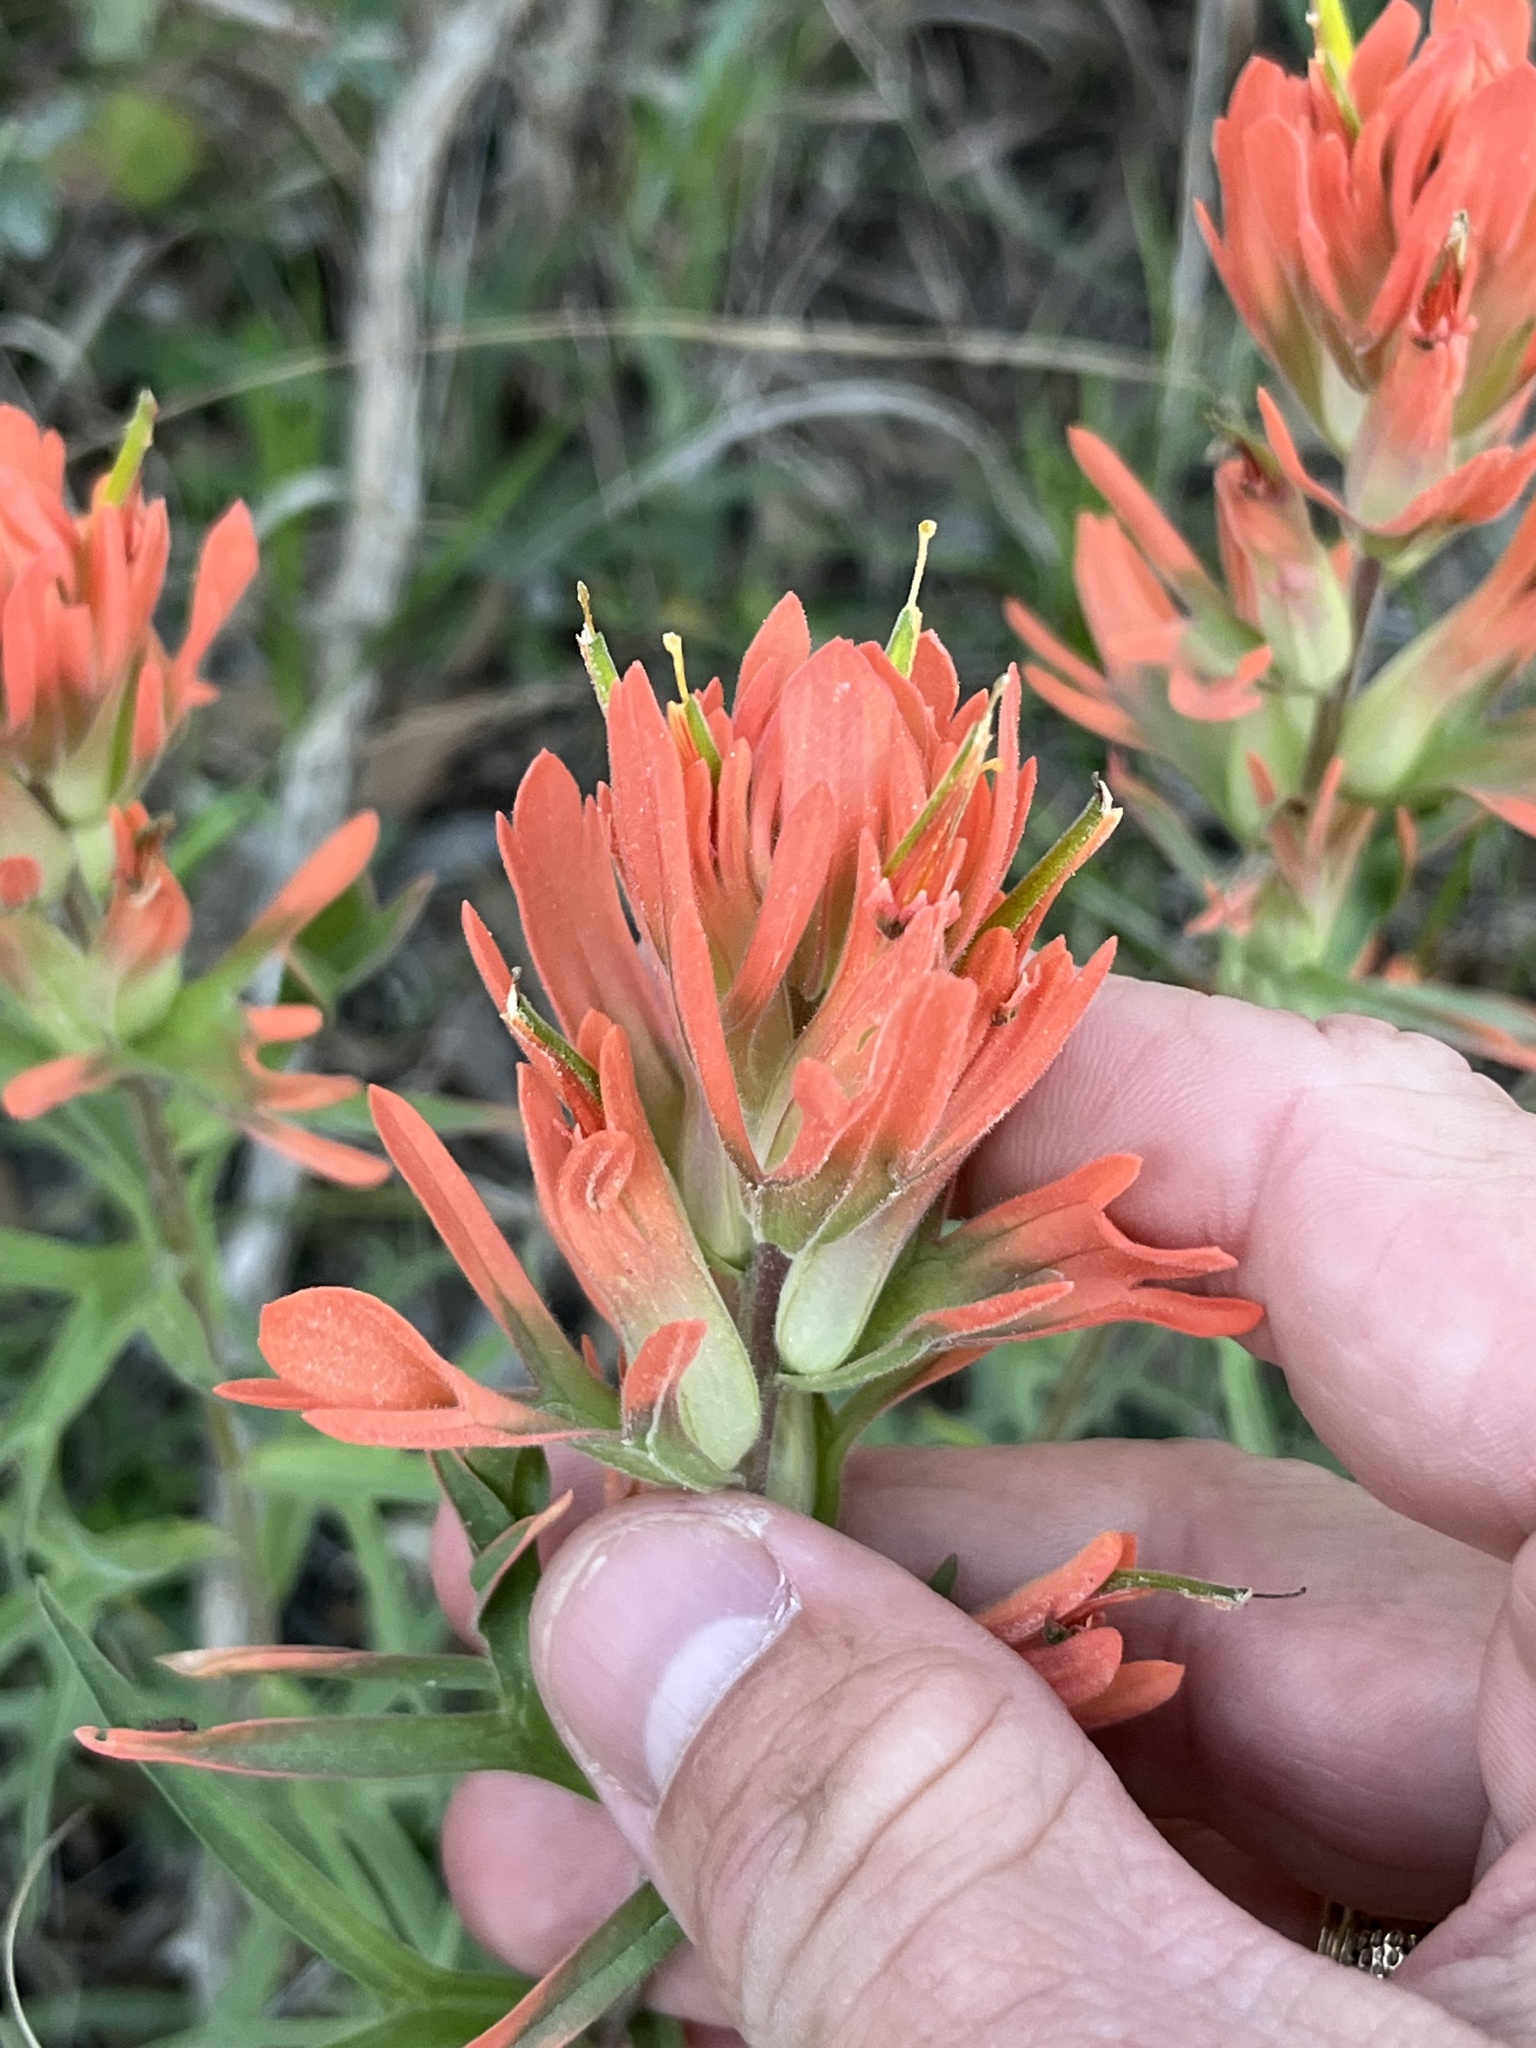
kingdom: Plantae
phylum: Tracheophyta
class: Magnoliopsida
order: Lamiales
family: Orobanchaceae
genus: Castilleja
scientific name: Castilleja lindheimeri
